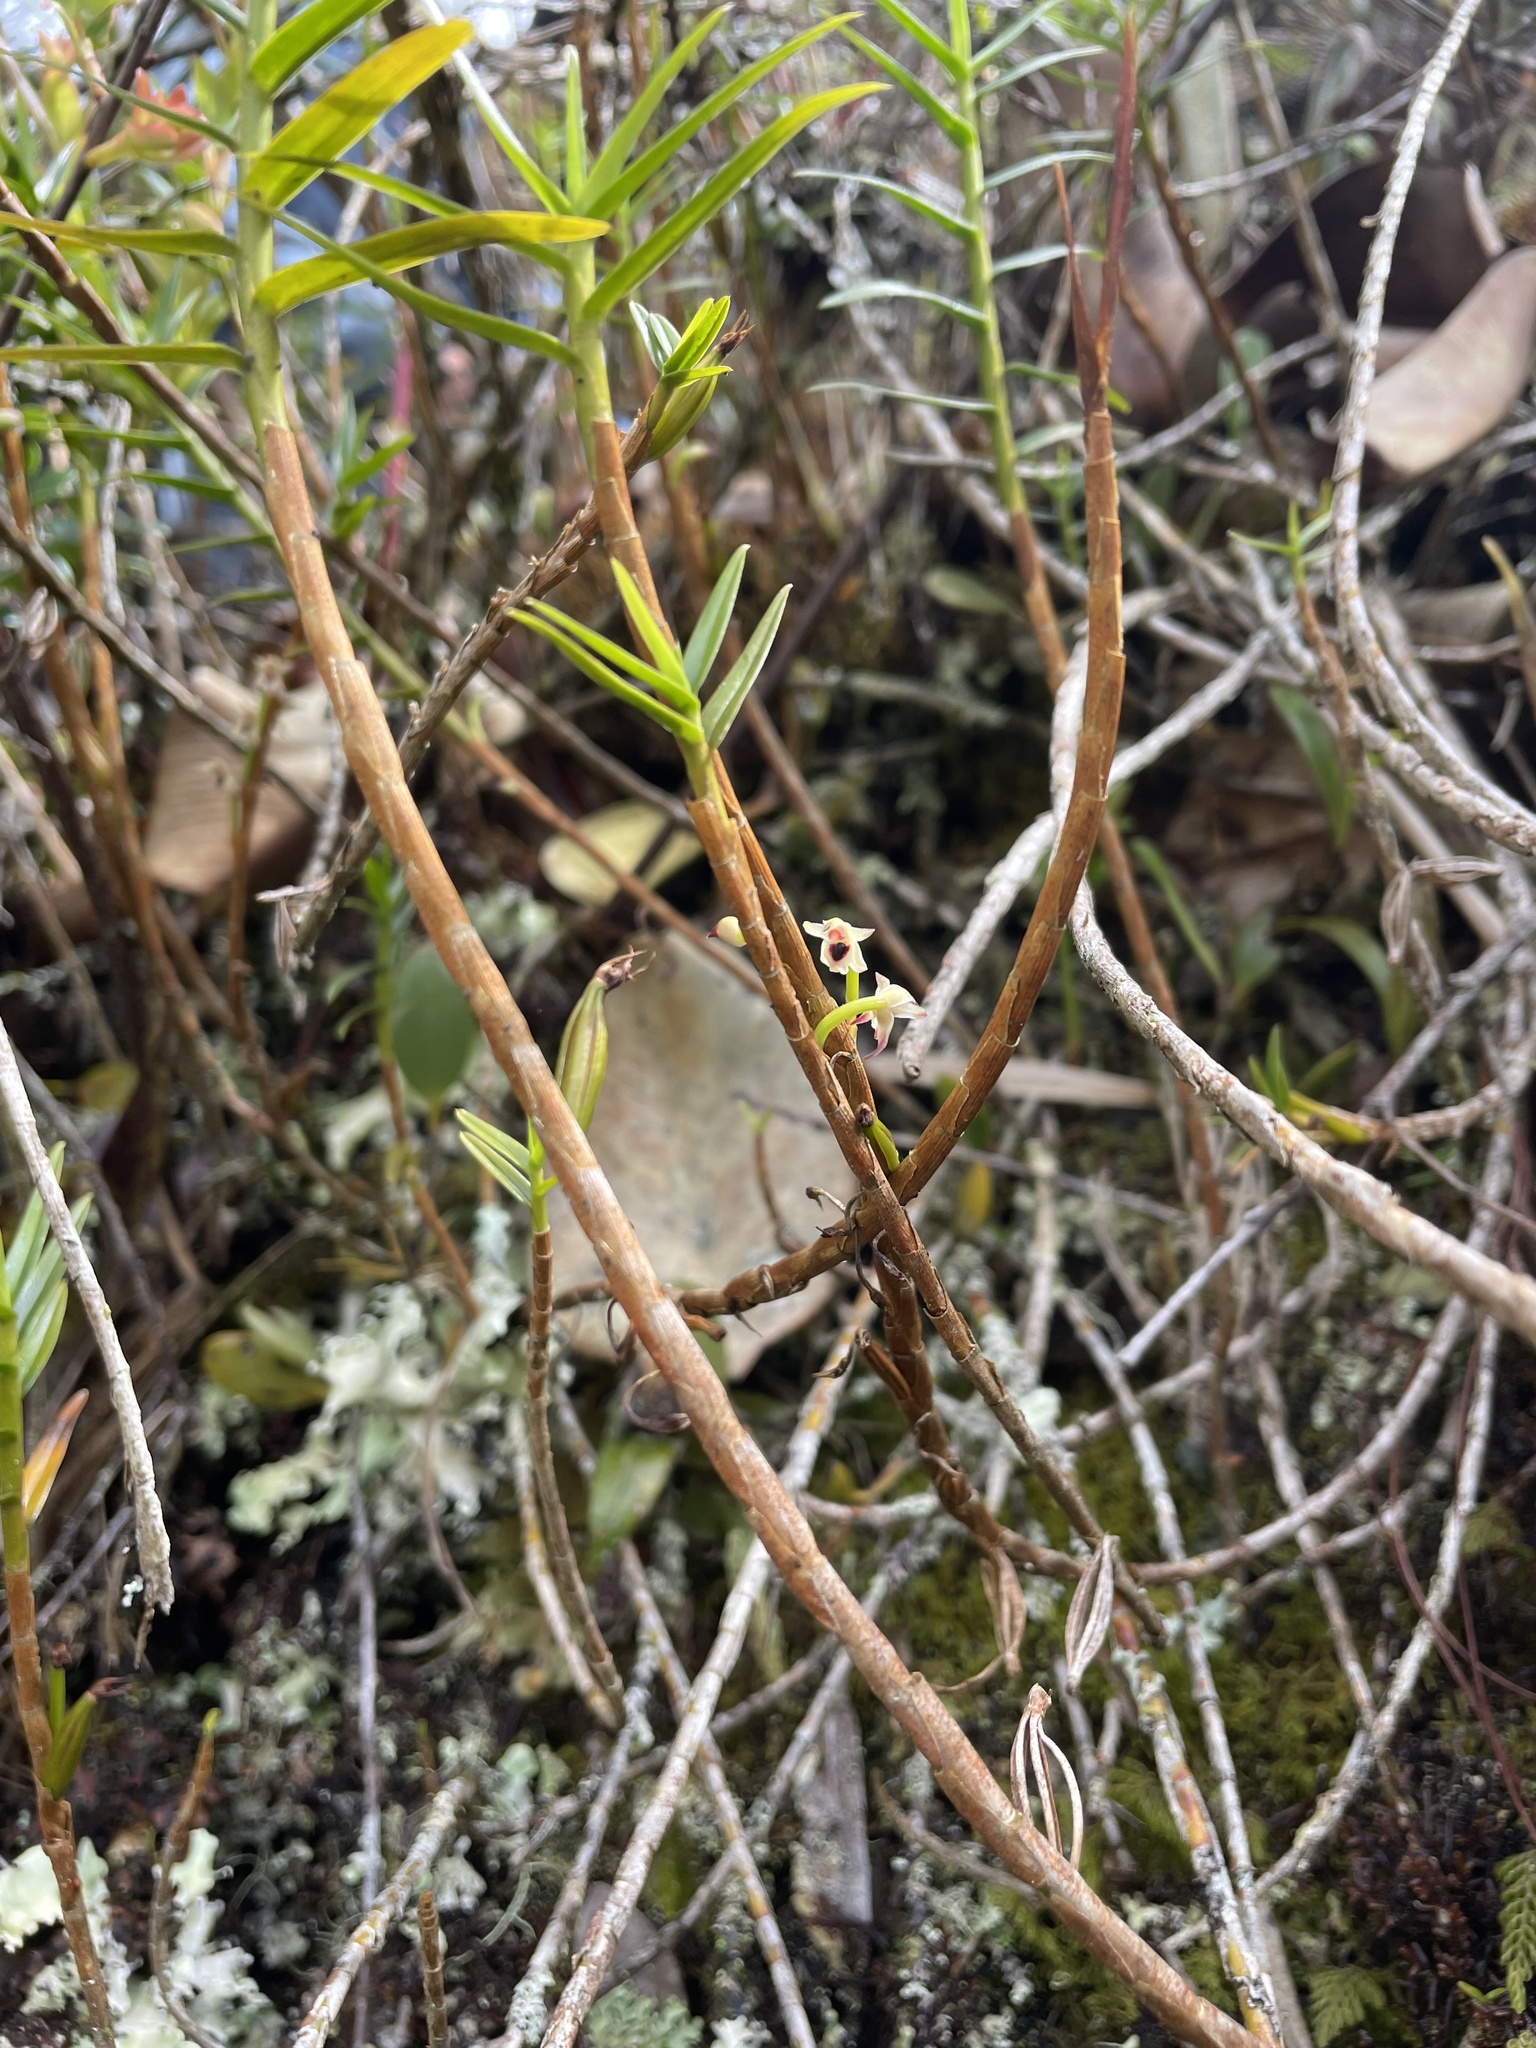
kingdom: Plantae
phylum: Tracheophyta
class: Liliopsida
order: Asparagales
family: Orchidaceae
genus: Maxillaria
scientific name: Maxillaria graminifolia
